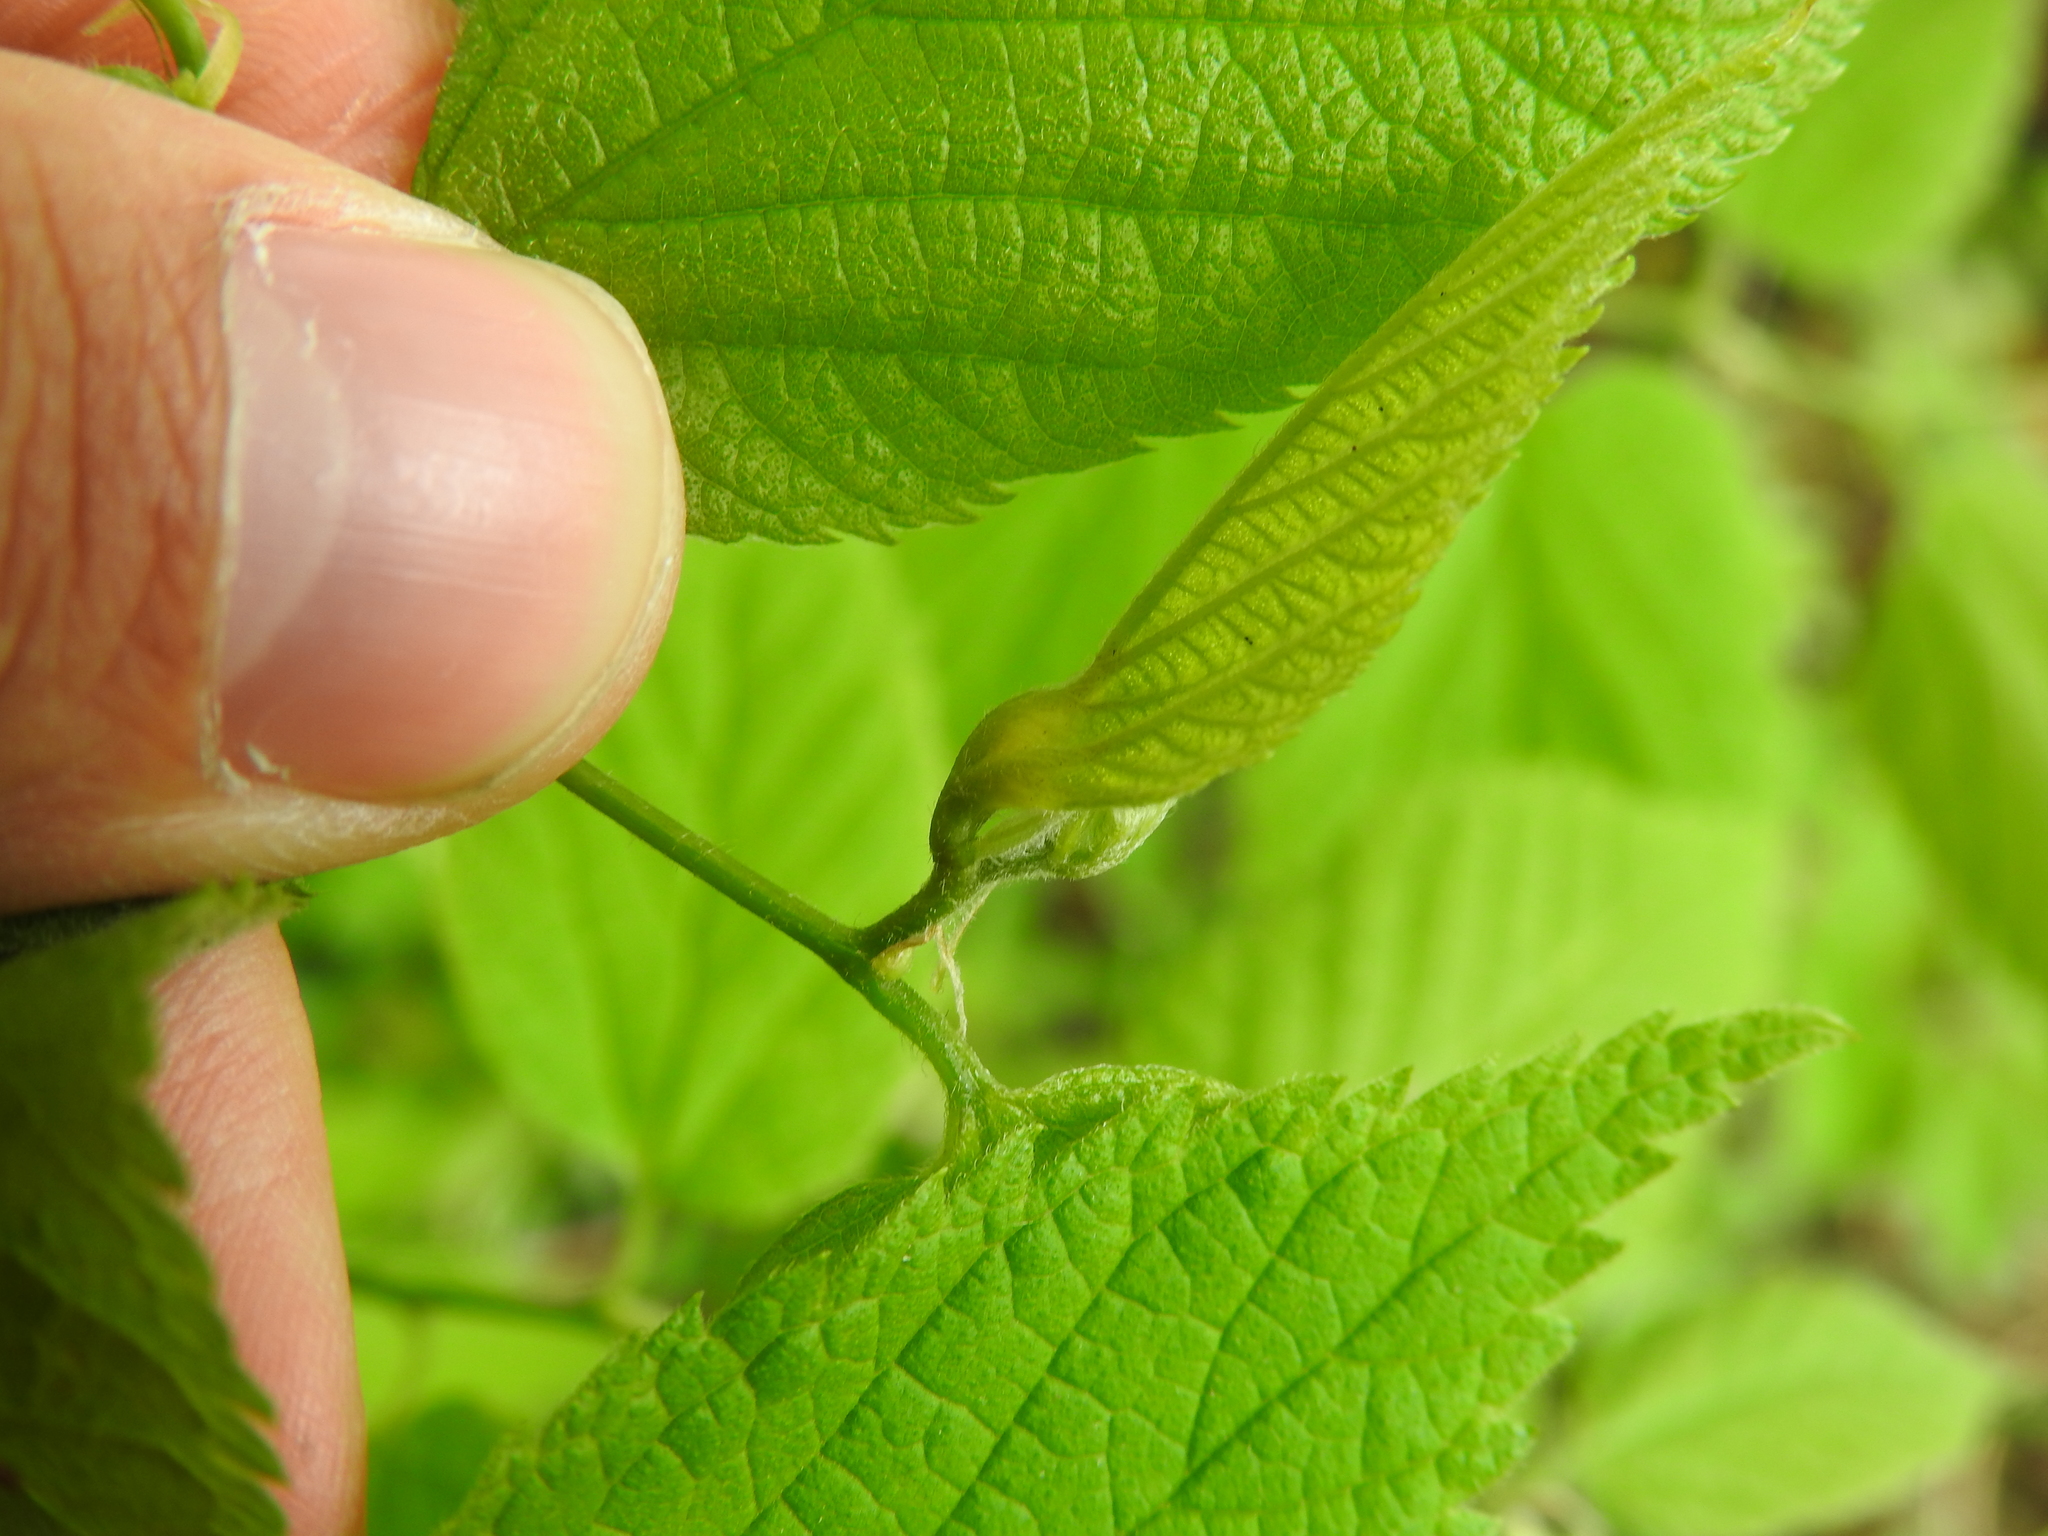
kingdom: Animalia
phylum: Arthropoda
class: Insecta
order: Hemiptera
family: Aphalaridae
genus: Pachypsylla
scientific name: Pachypsylla venusta
